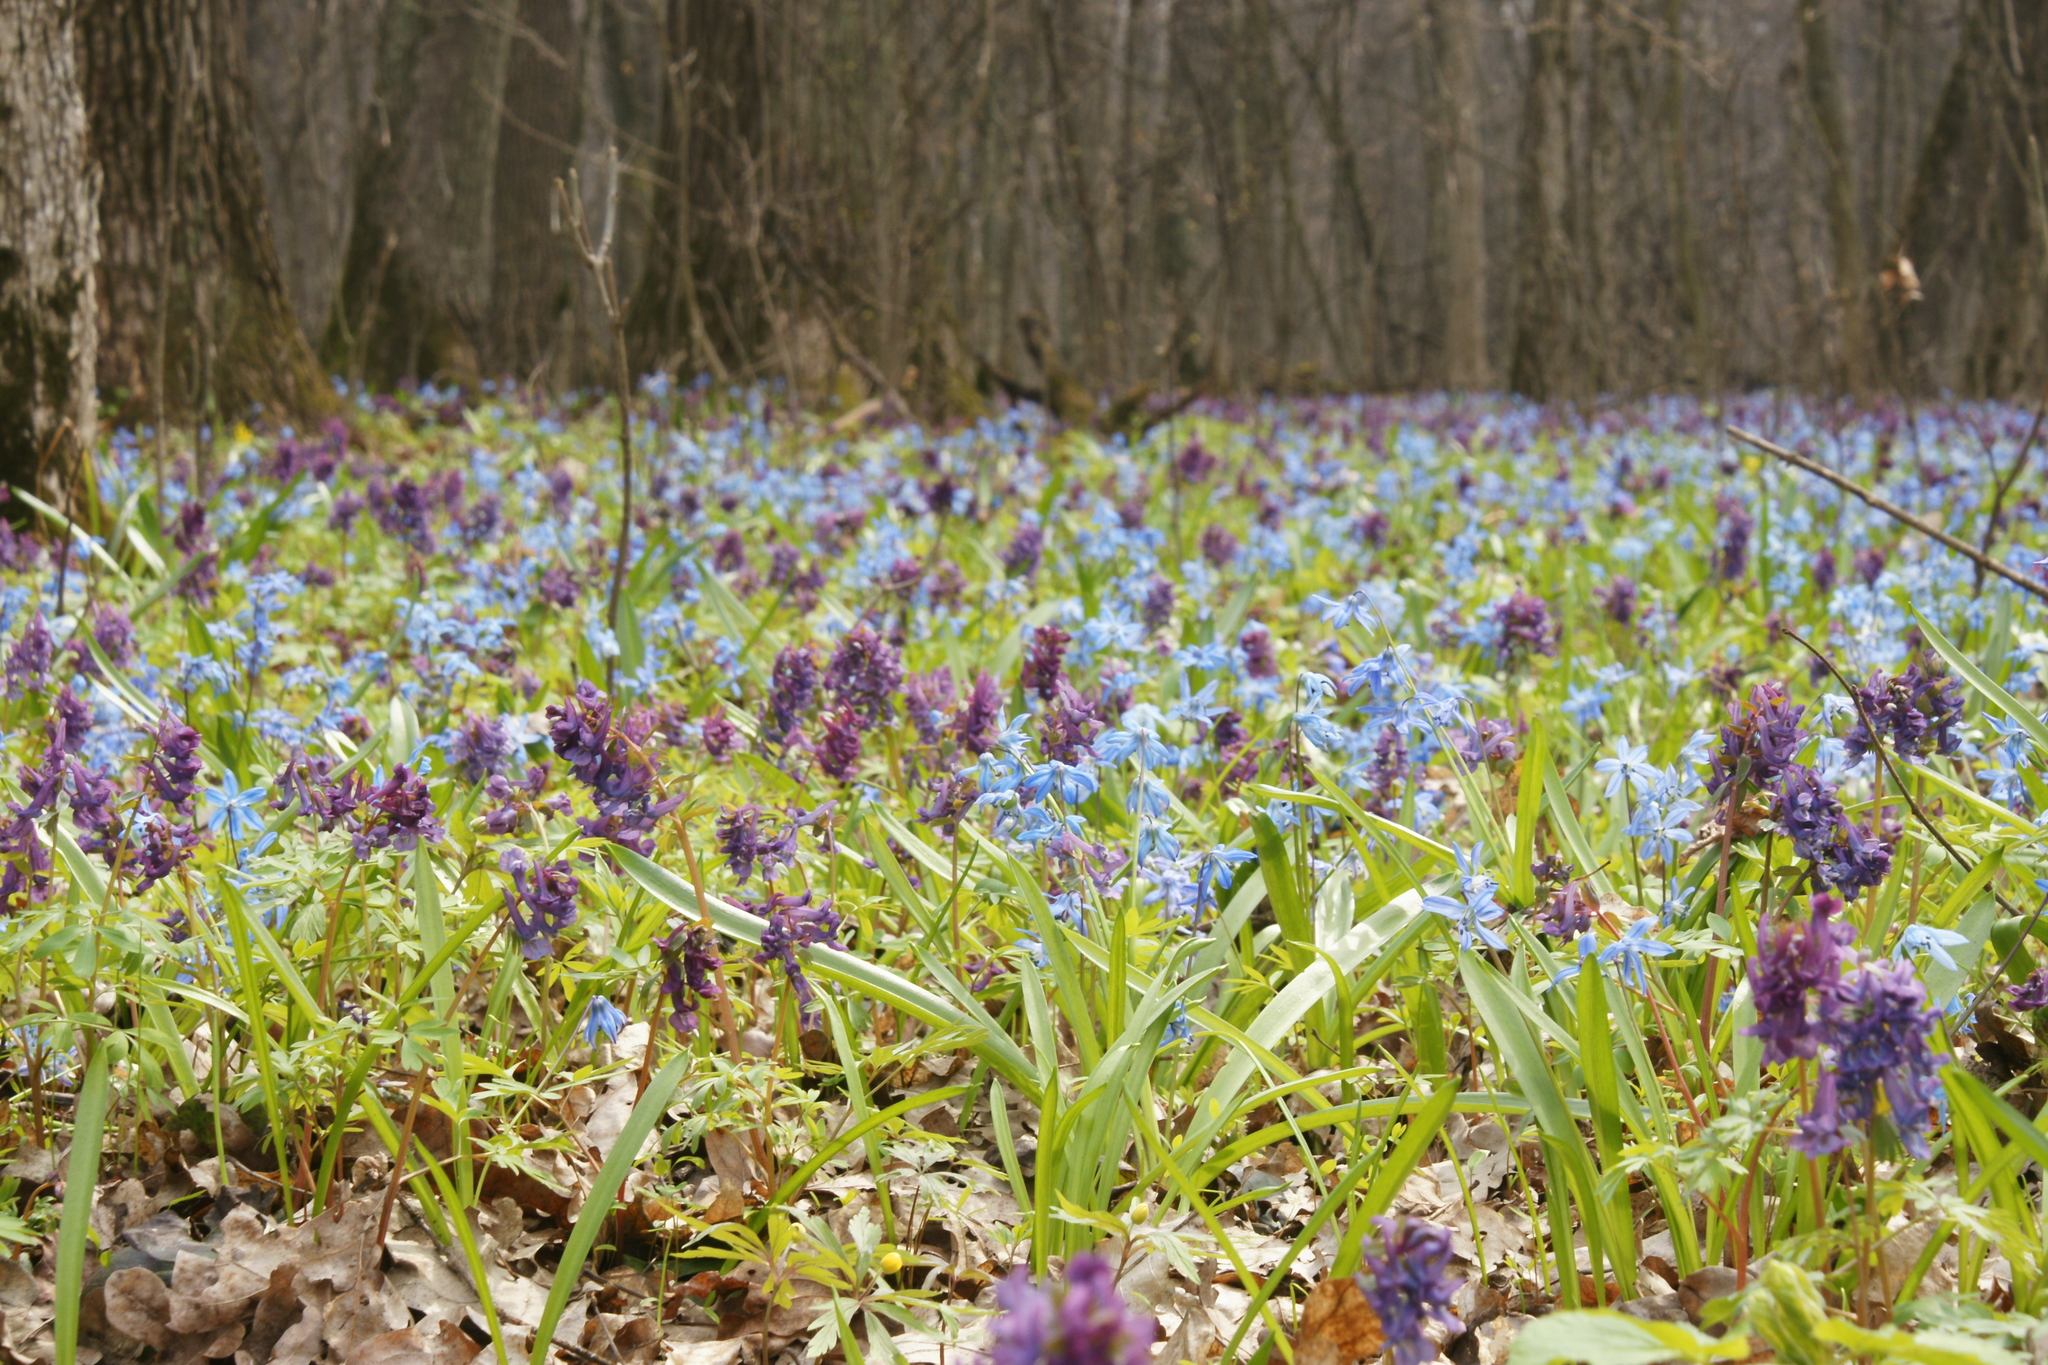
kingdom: Plantae
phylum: Tracheophyta
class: Magnoliopsida
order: Ranunculales
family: Papaveraceae
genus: Corydalis
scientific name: Corydalis solida
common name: Bird-in-a-bush
